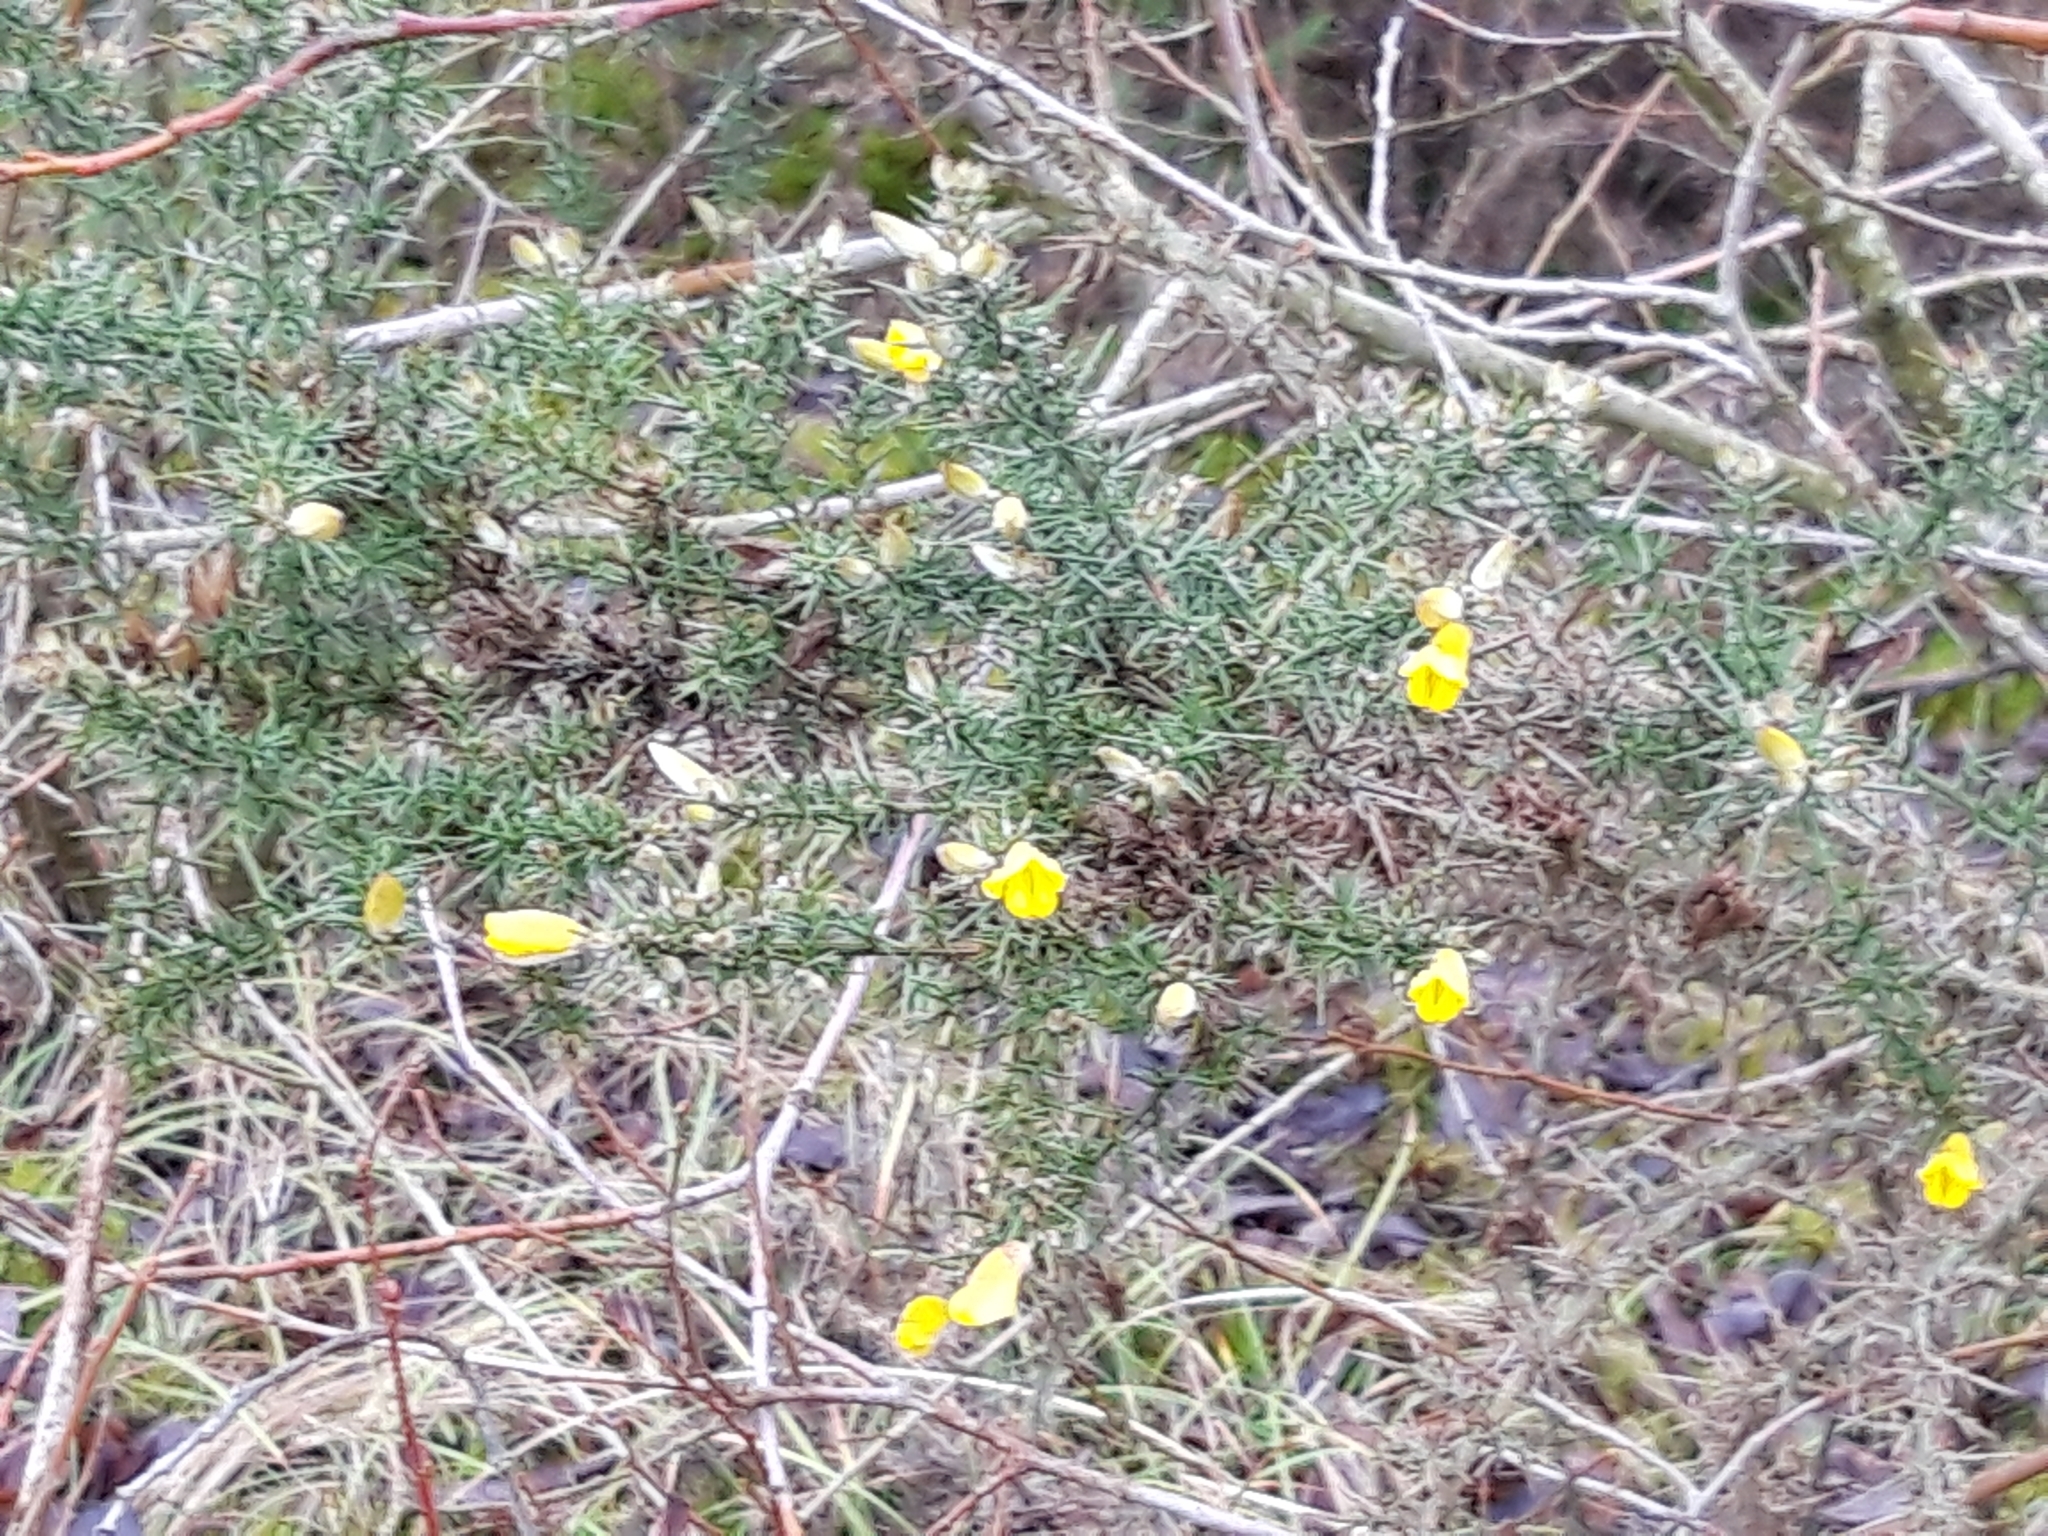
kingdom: Plantae
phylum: Tracheophyta
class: Magnoliopsida
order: Fabales
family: Fabaceae
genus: Ulex
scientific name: Ulex europaeus
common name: Common gorse
